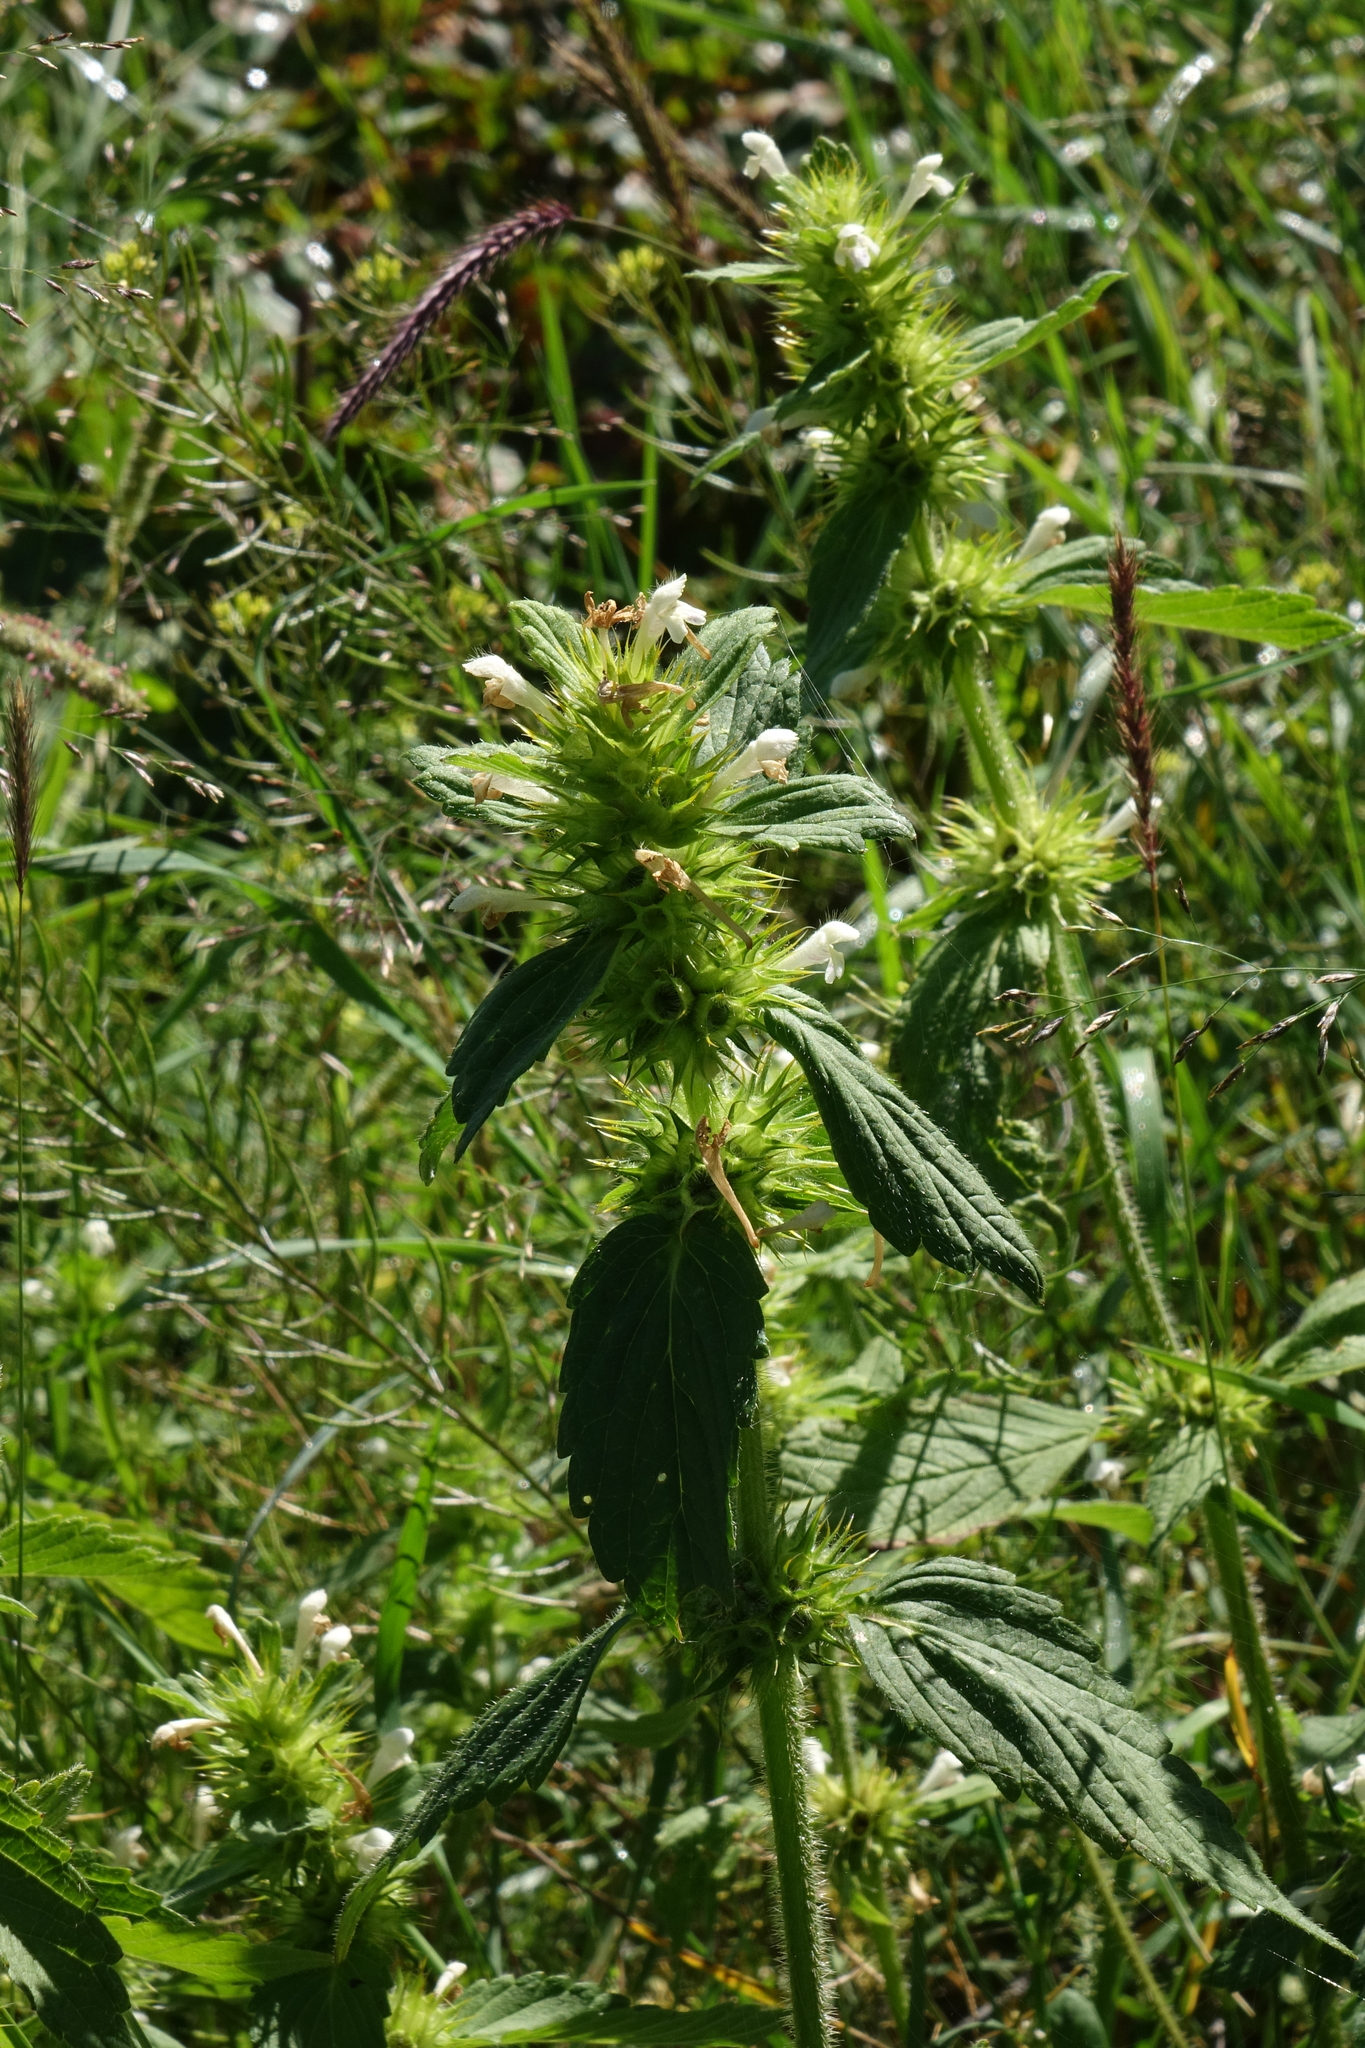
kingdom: Plantae
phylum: Tracheophyta
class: Magnoliopsida
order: Lamiales
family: Lamiaceae
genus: Galeopsis
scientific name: Galeopsis bifida
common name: Bifid hemp-nettle
